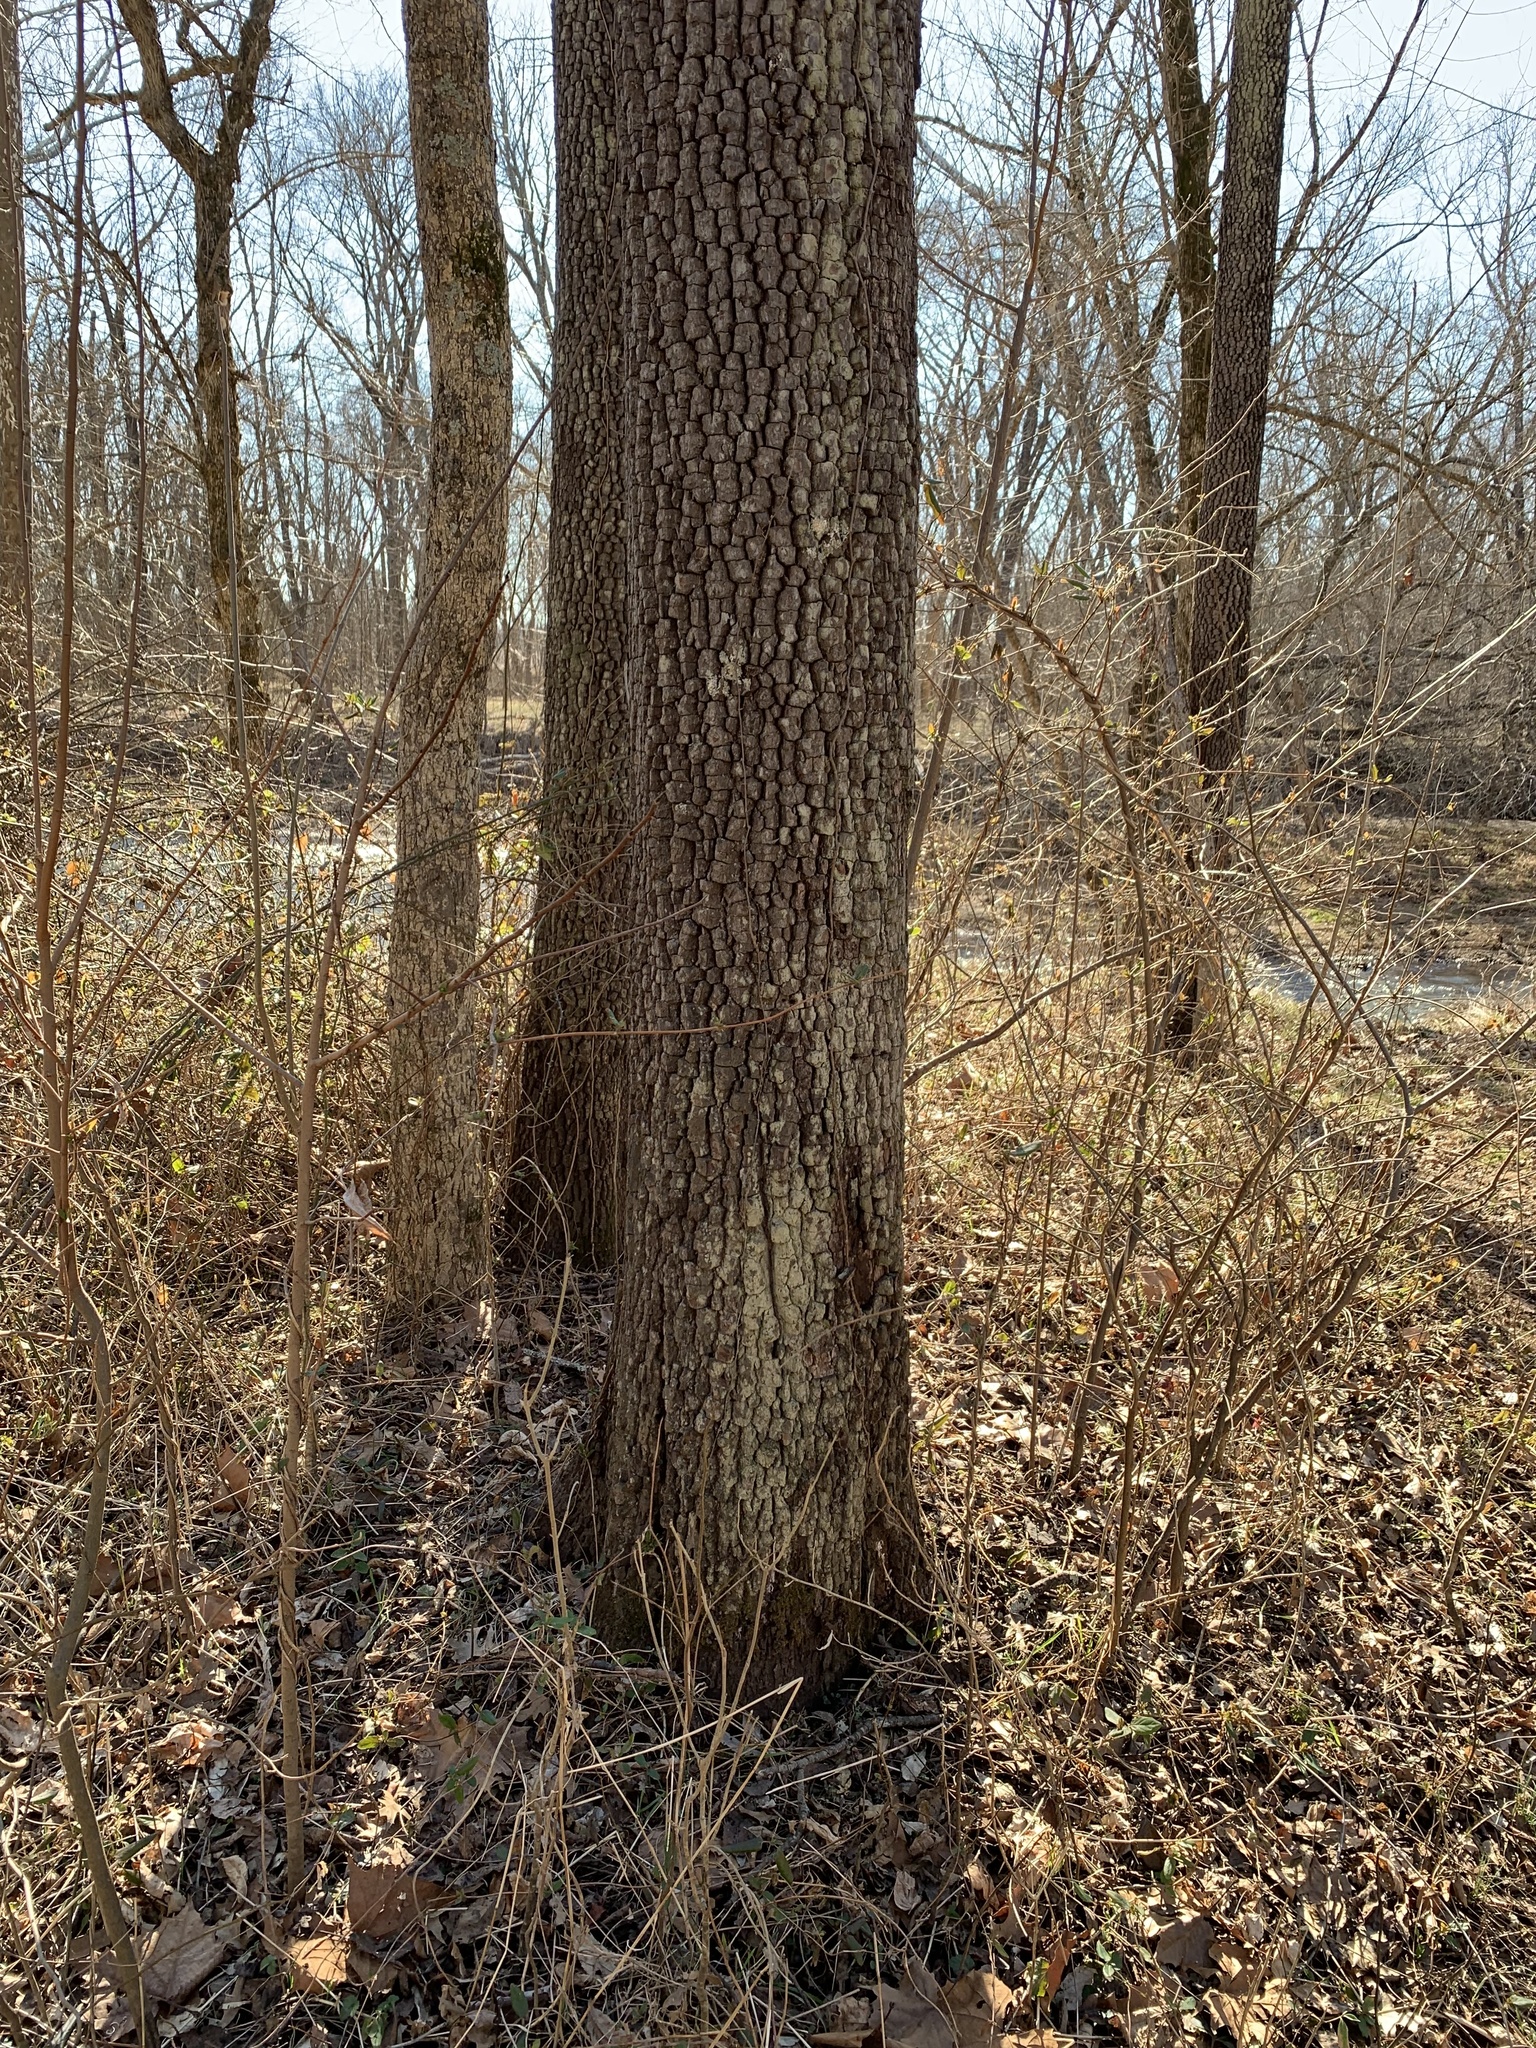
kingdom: Plantae
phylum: Tracheophyta
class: Magnoliopsida
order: Ericales
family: Ebenaceae
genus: Diospyros
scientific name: Diospyros virginiana
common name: Persimmon
